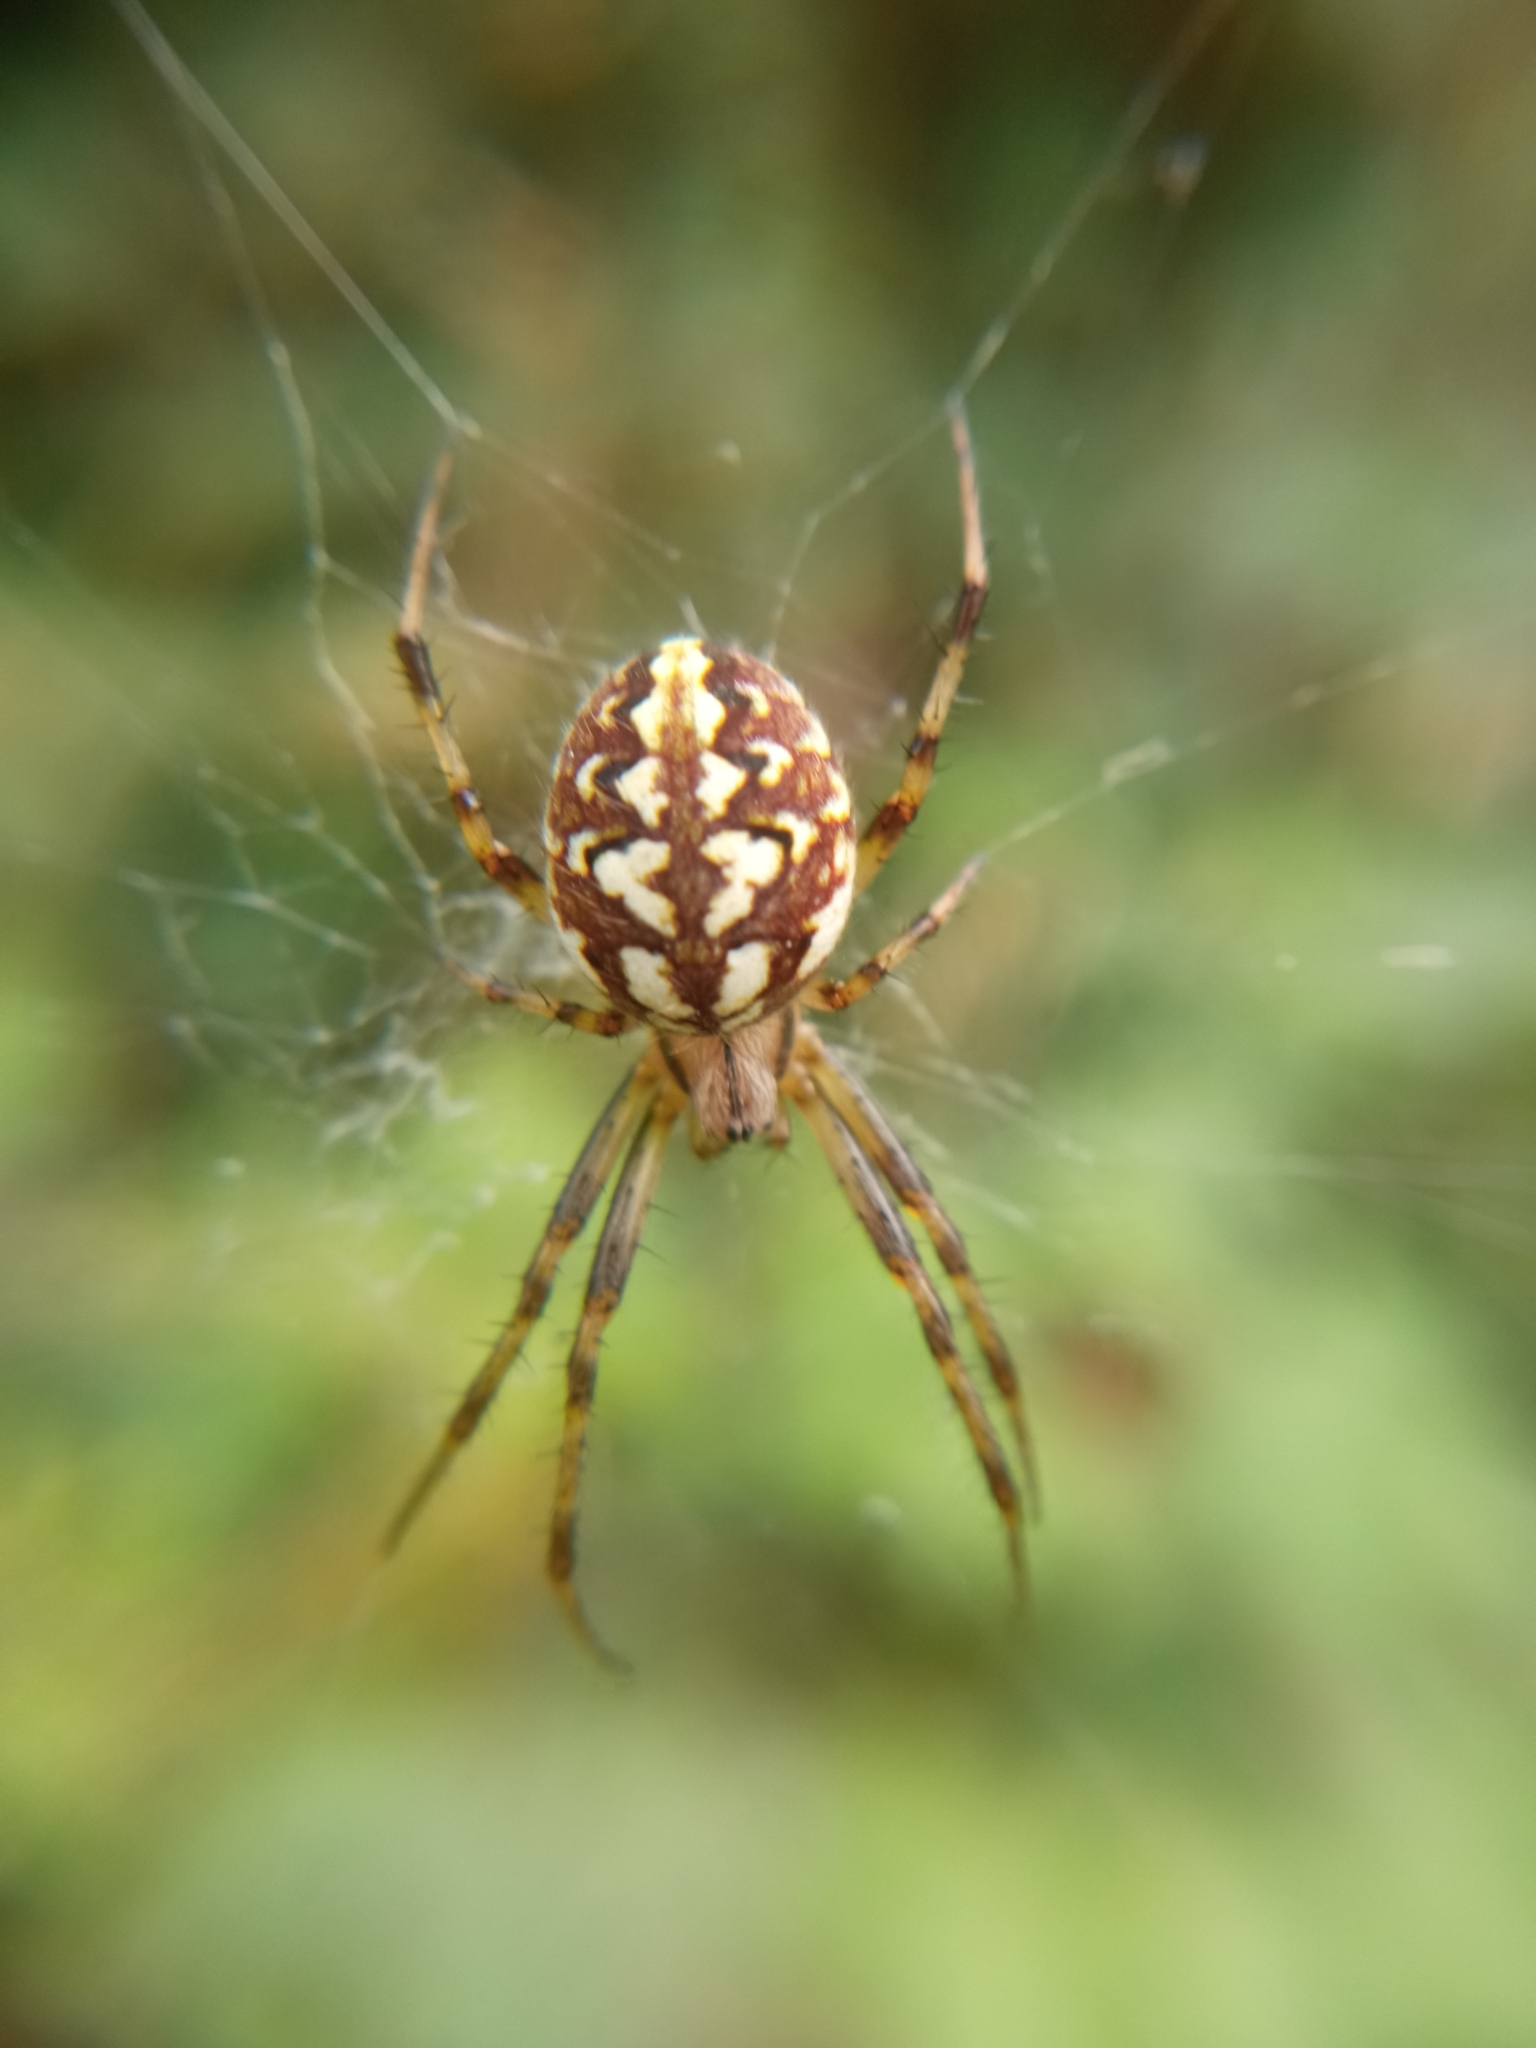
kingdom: Animalia
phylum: Arthropoda
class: Arachnida
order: Araneae
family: Araneidae
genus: Neoscona
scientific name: Neoscona adianta
